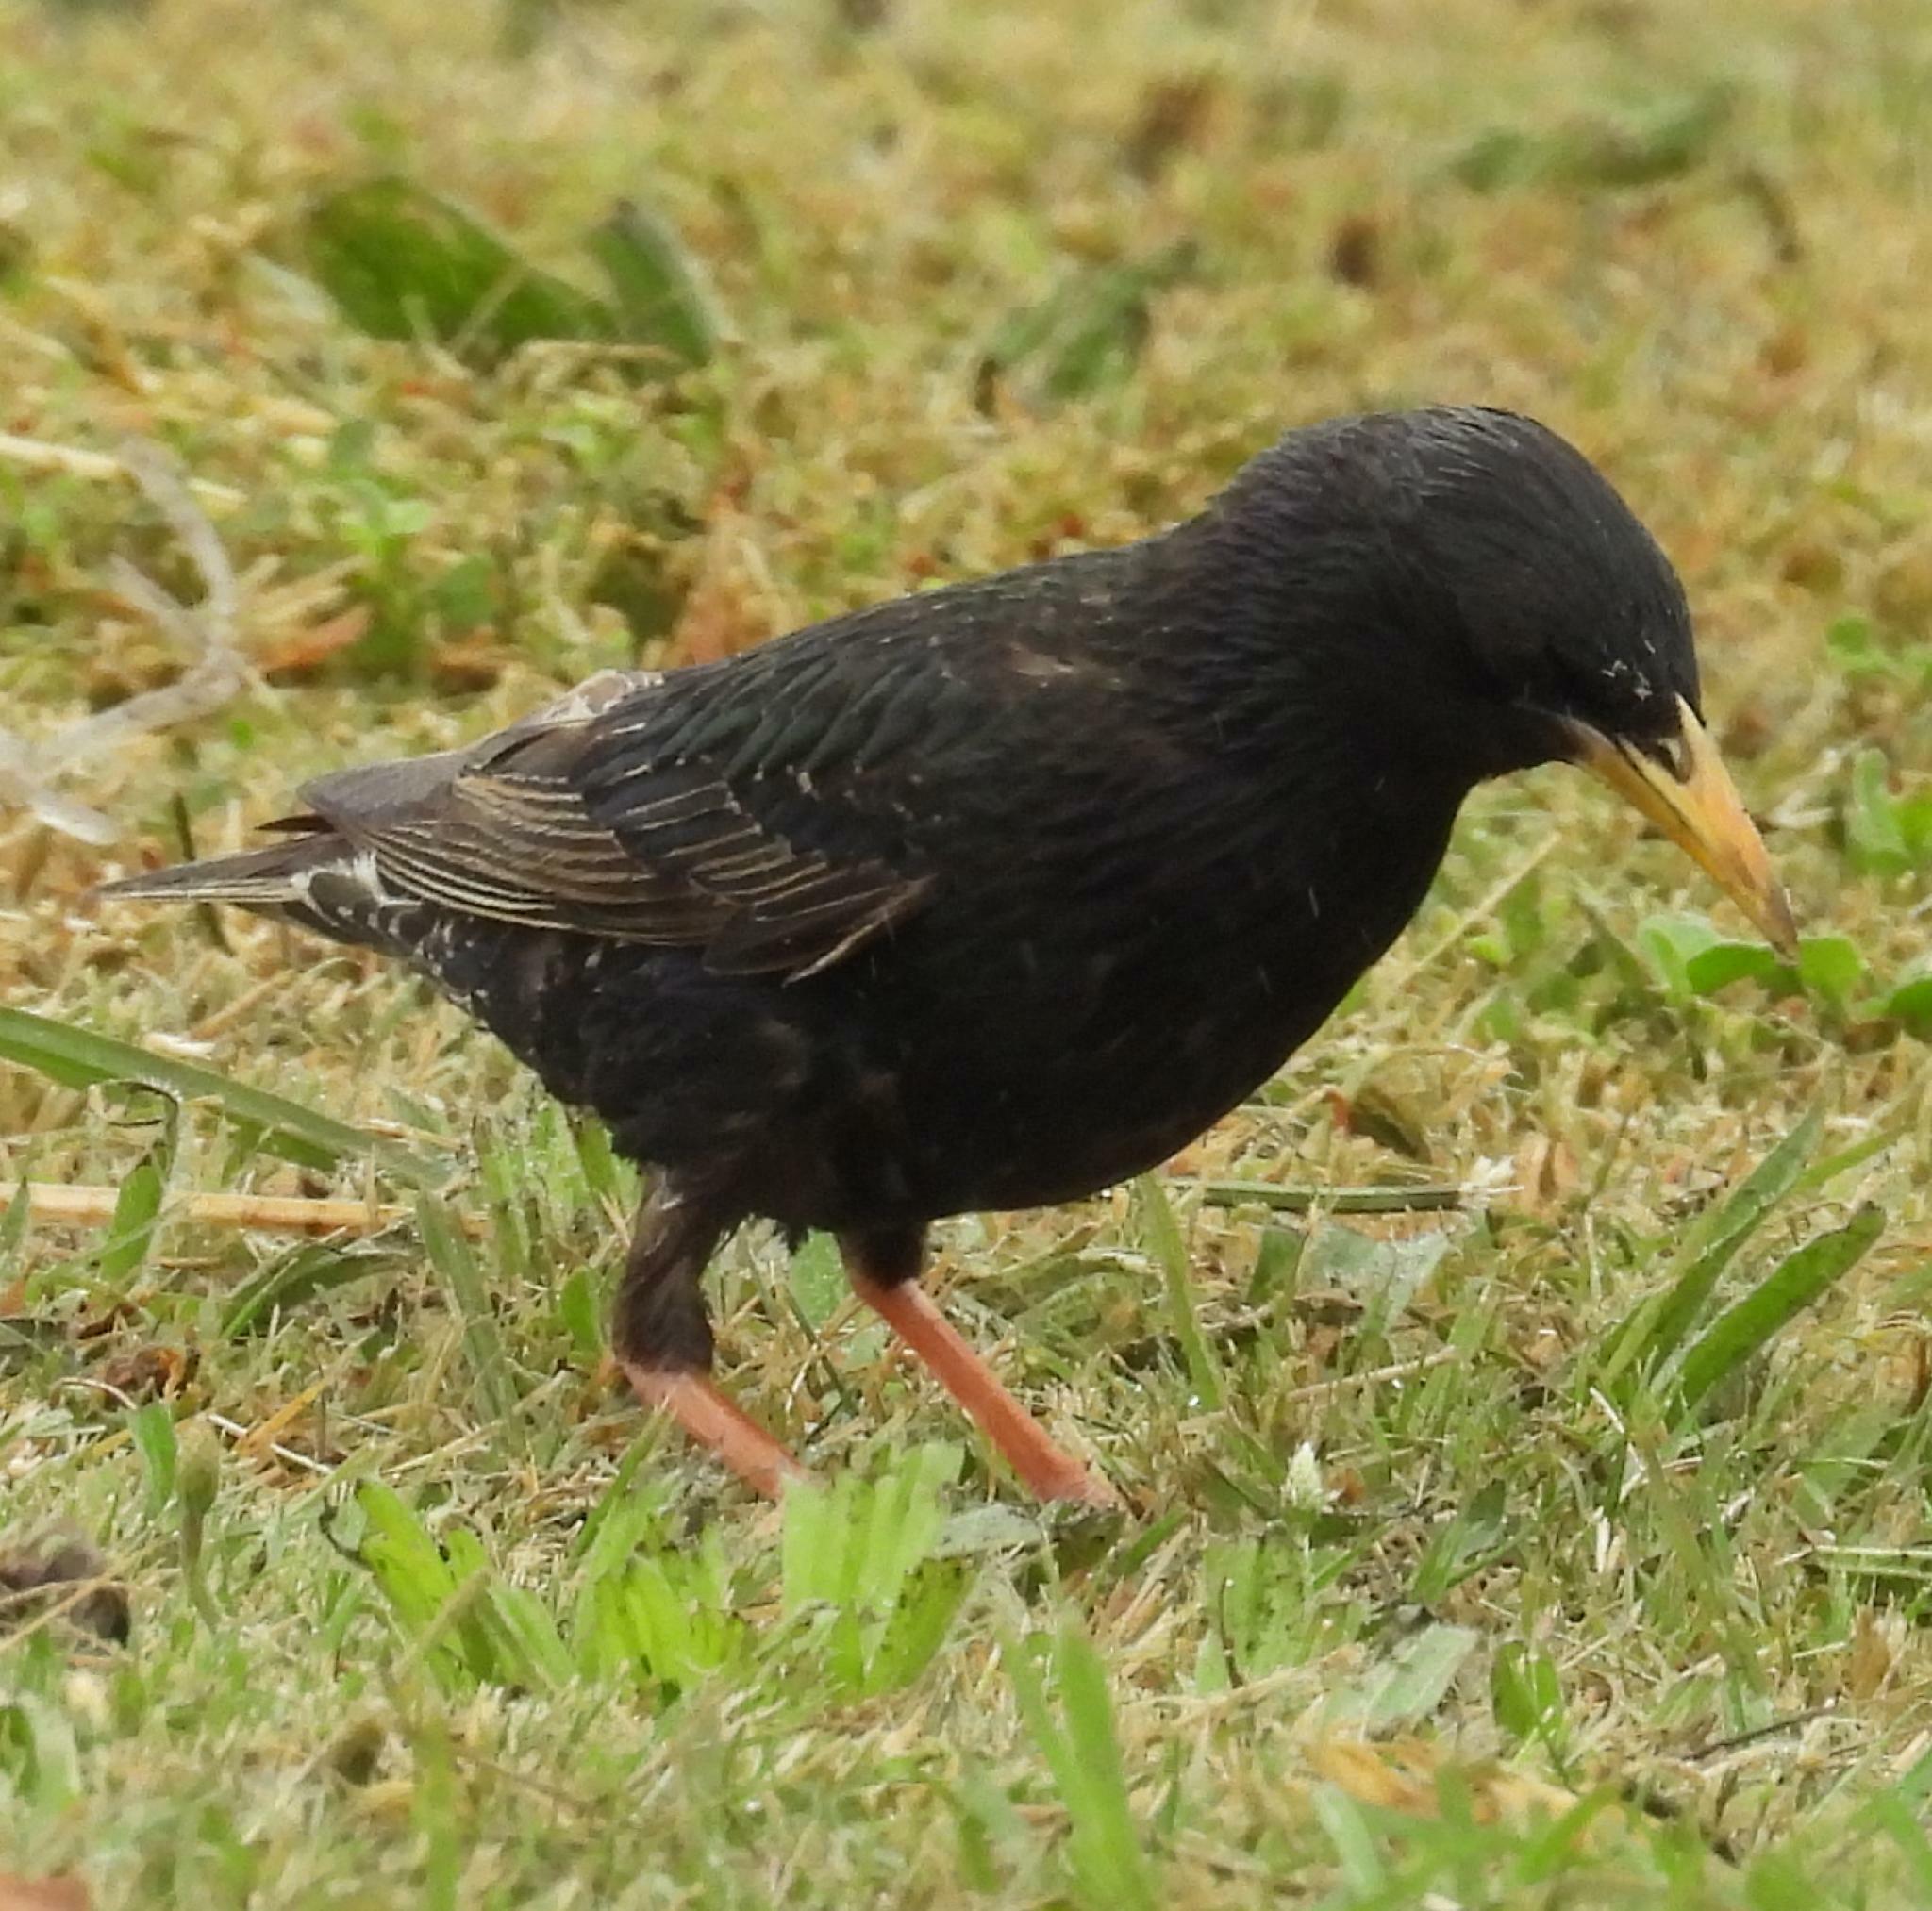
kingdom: Animalia
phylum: Chordata
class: Aves
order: Passeriformes
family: Sturnidae
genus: Sturnus
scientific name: Sturnus vulgaris
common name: Common starling
